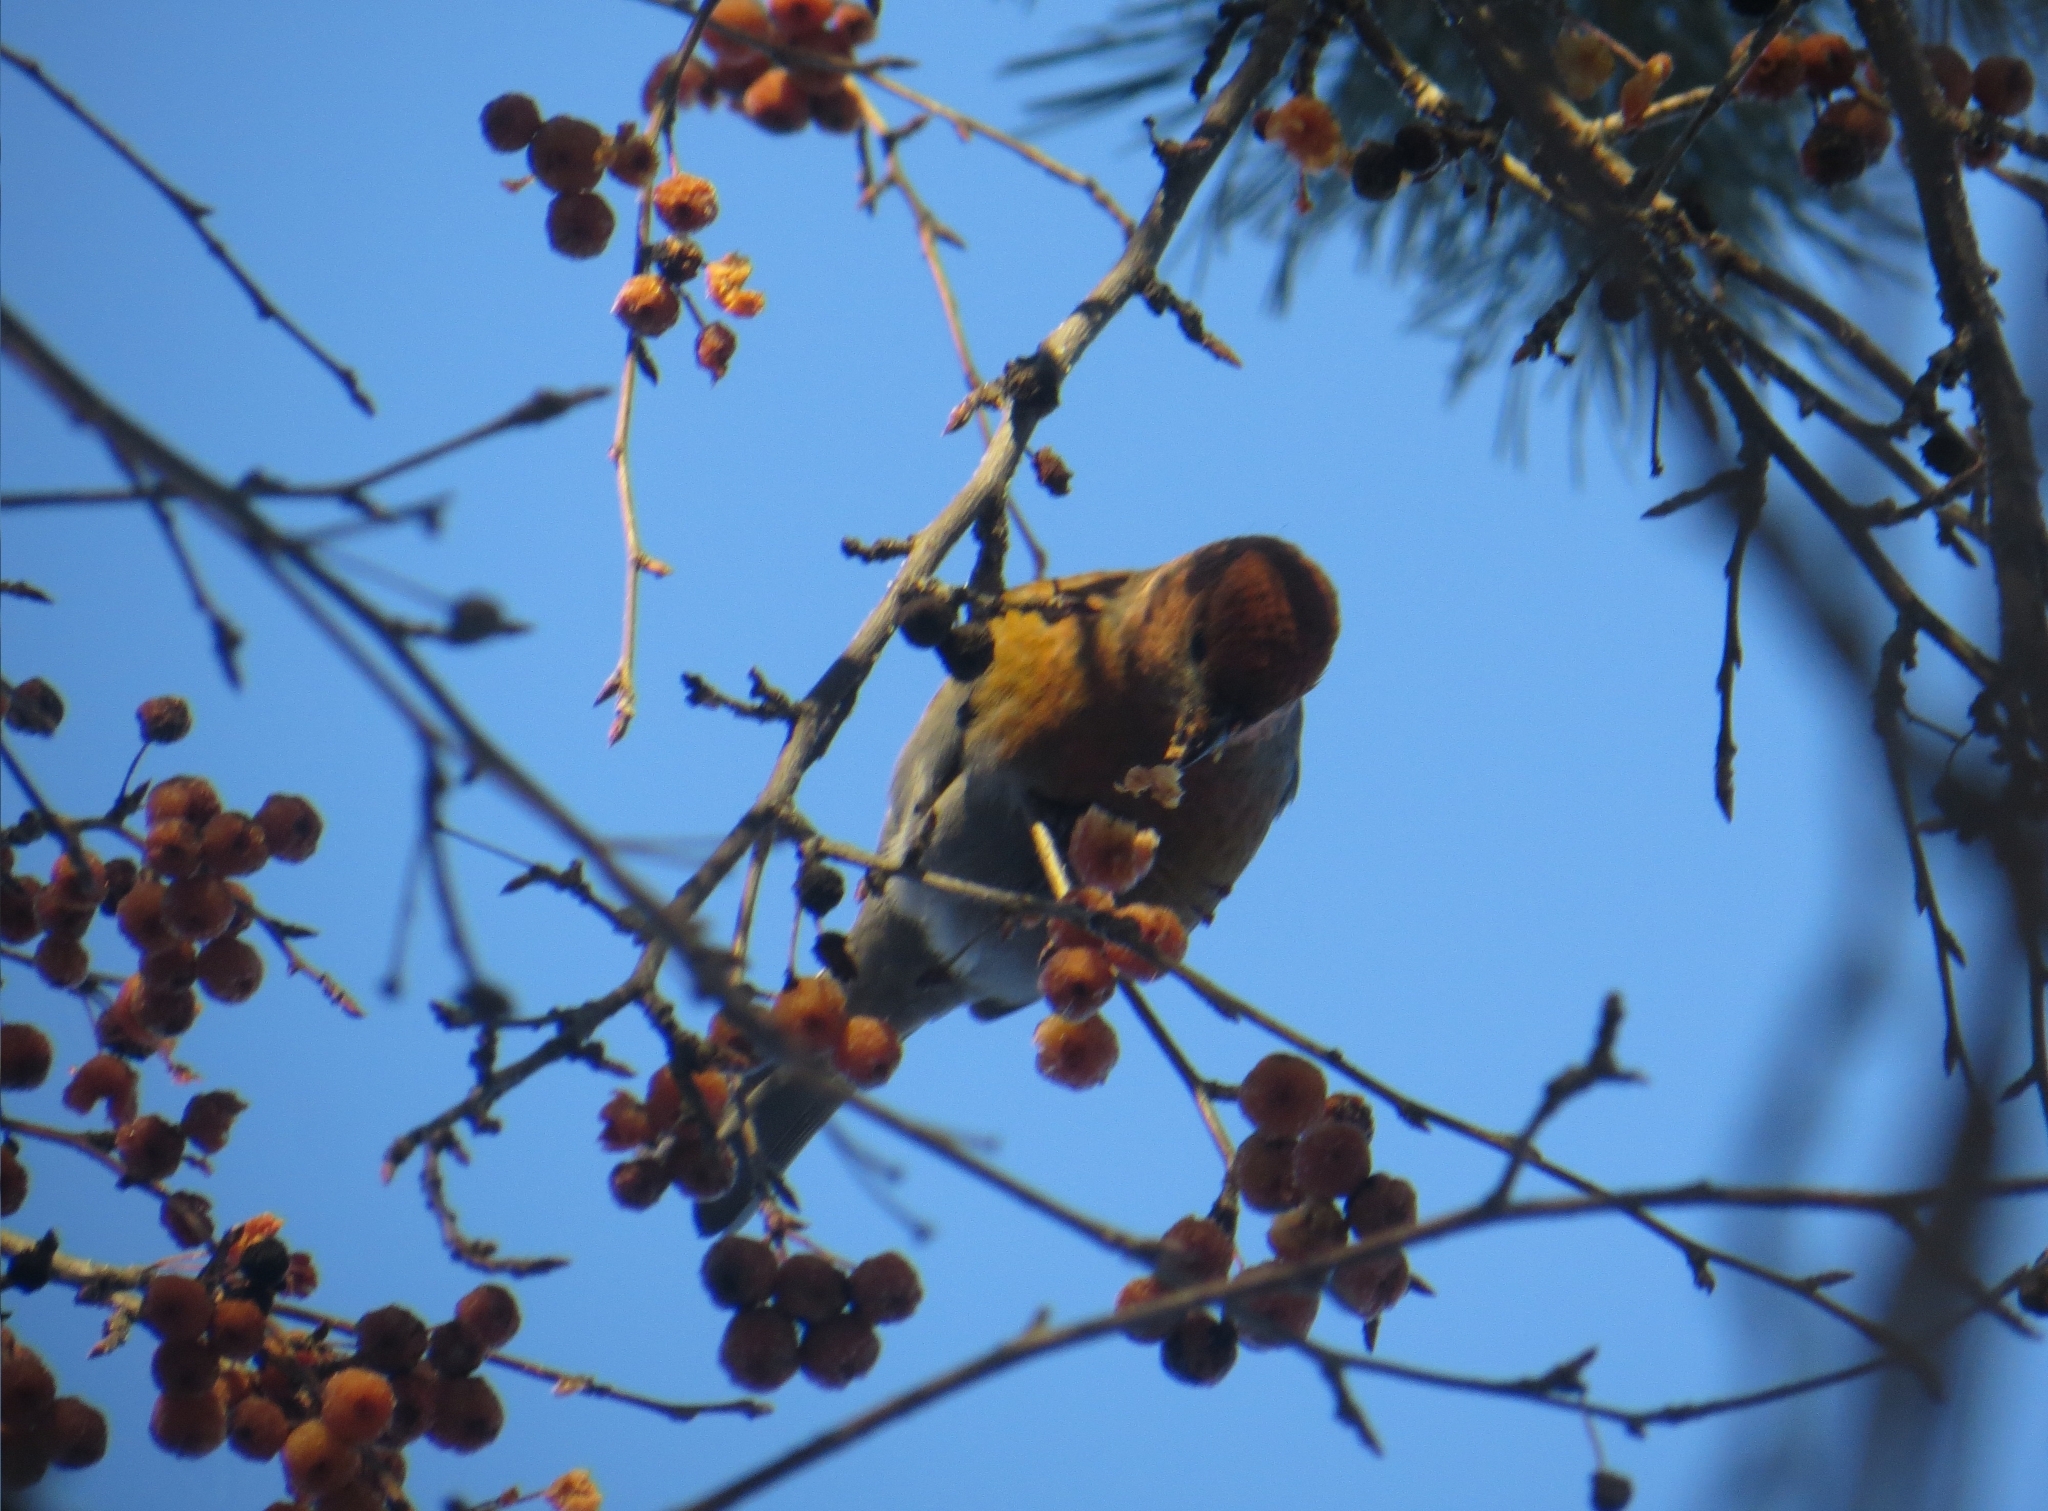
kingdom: Animalia
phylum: Chordata
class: Aves
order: Passeriformes
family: Fringillidae
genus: Pinicola
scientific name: Pinicola enucleator
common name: Pine grosbeak
